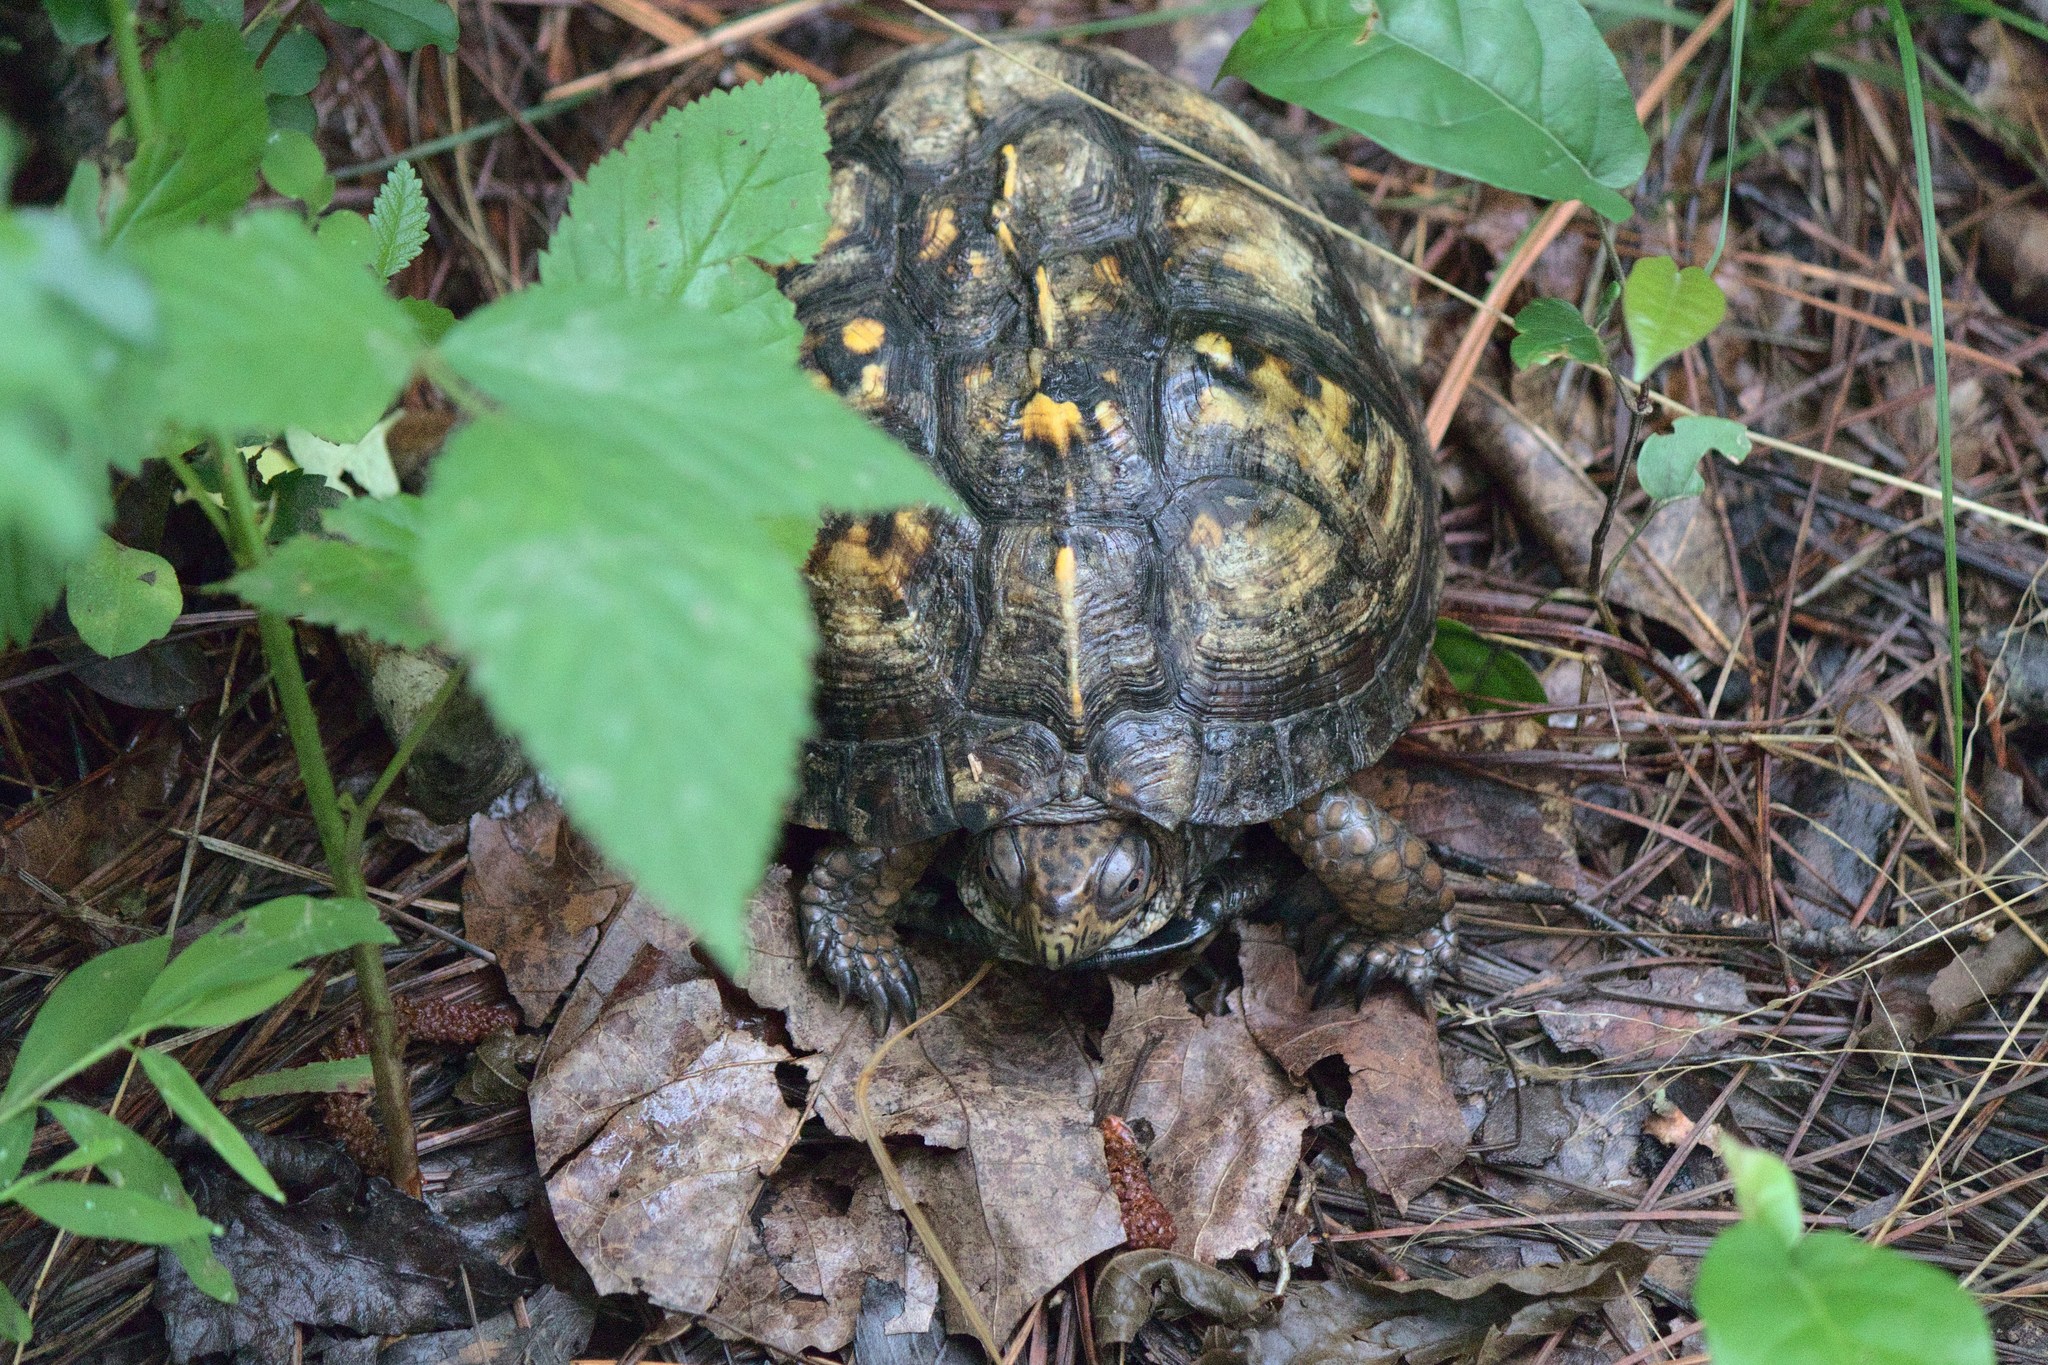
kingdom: Animalia
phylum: Chordata
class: Testudines
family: Emydidae
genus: Terrapene
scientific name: Terrapene carolina
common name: Common box turtle
